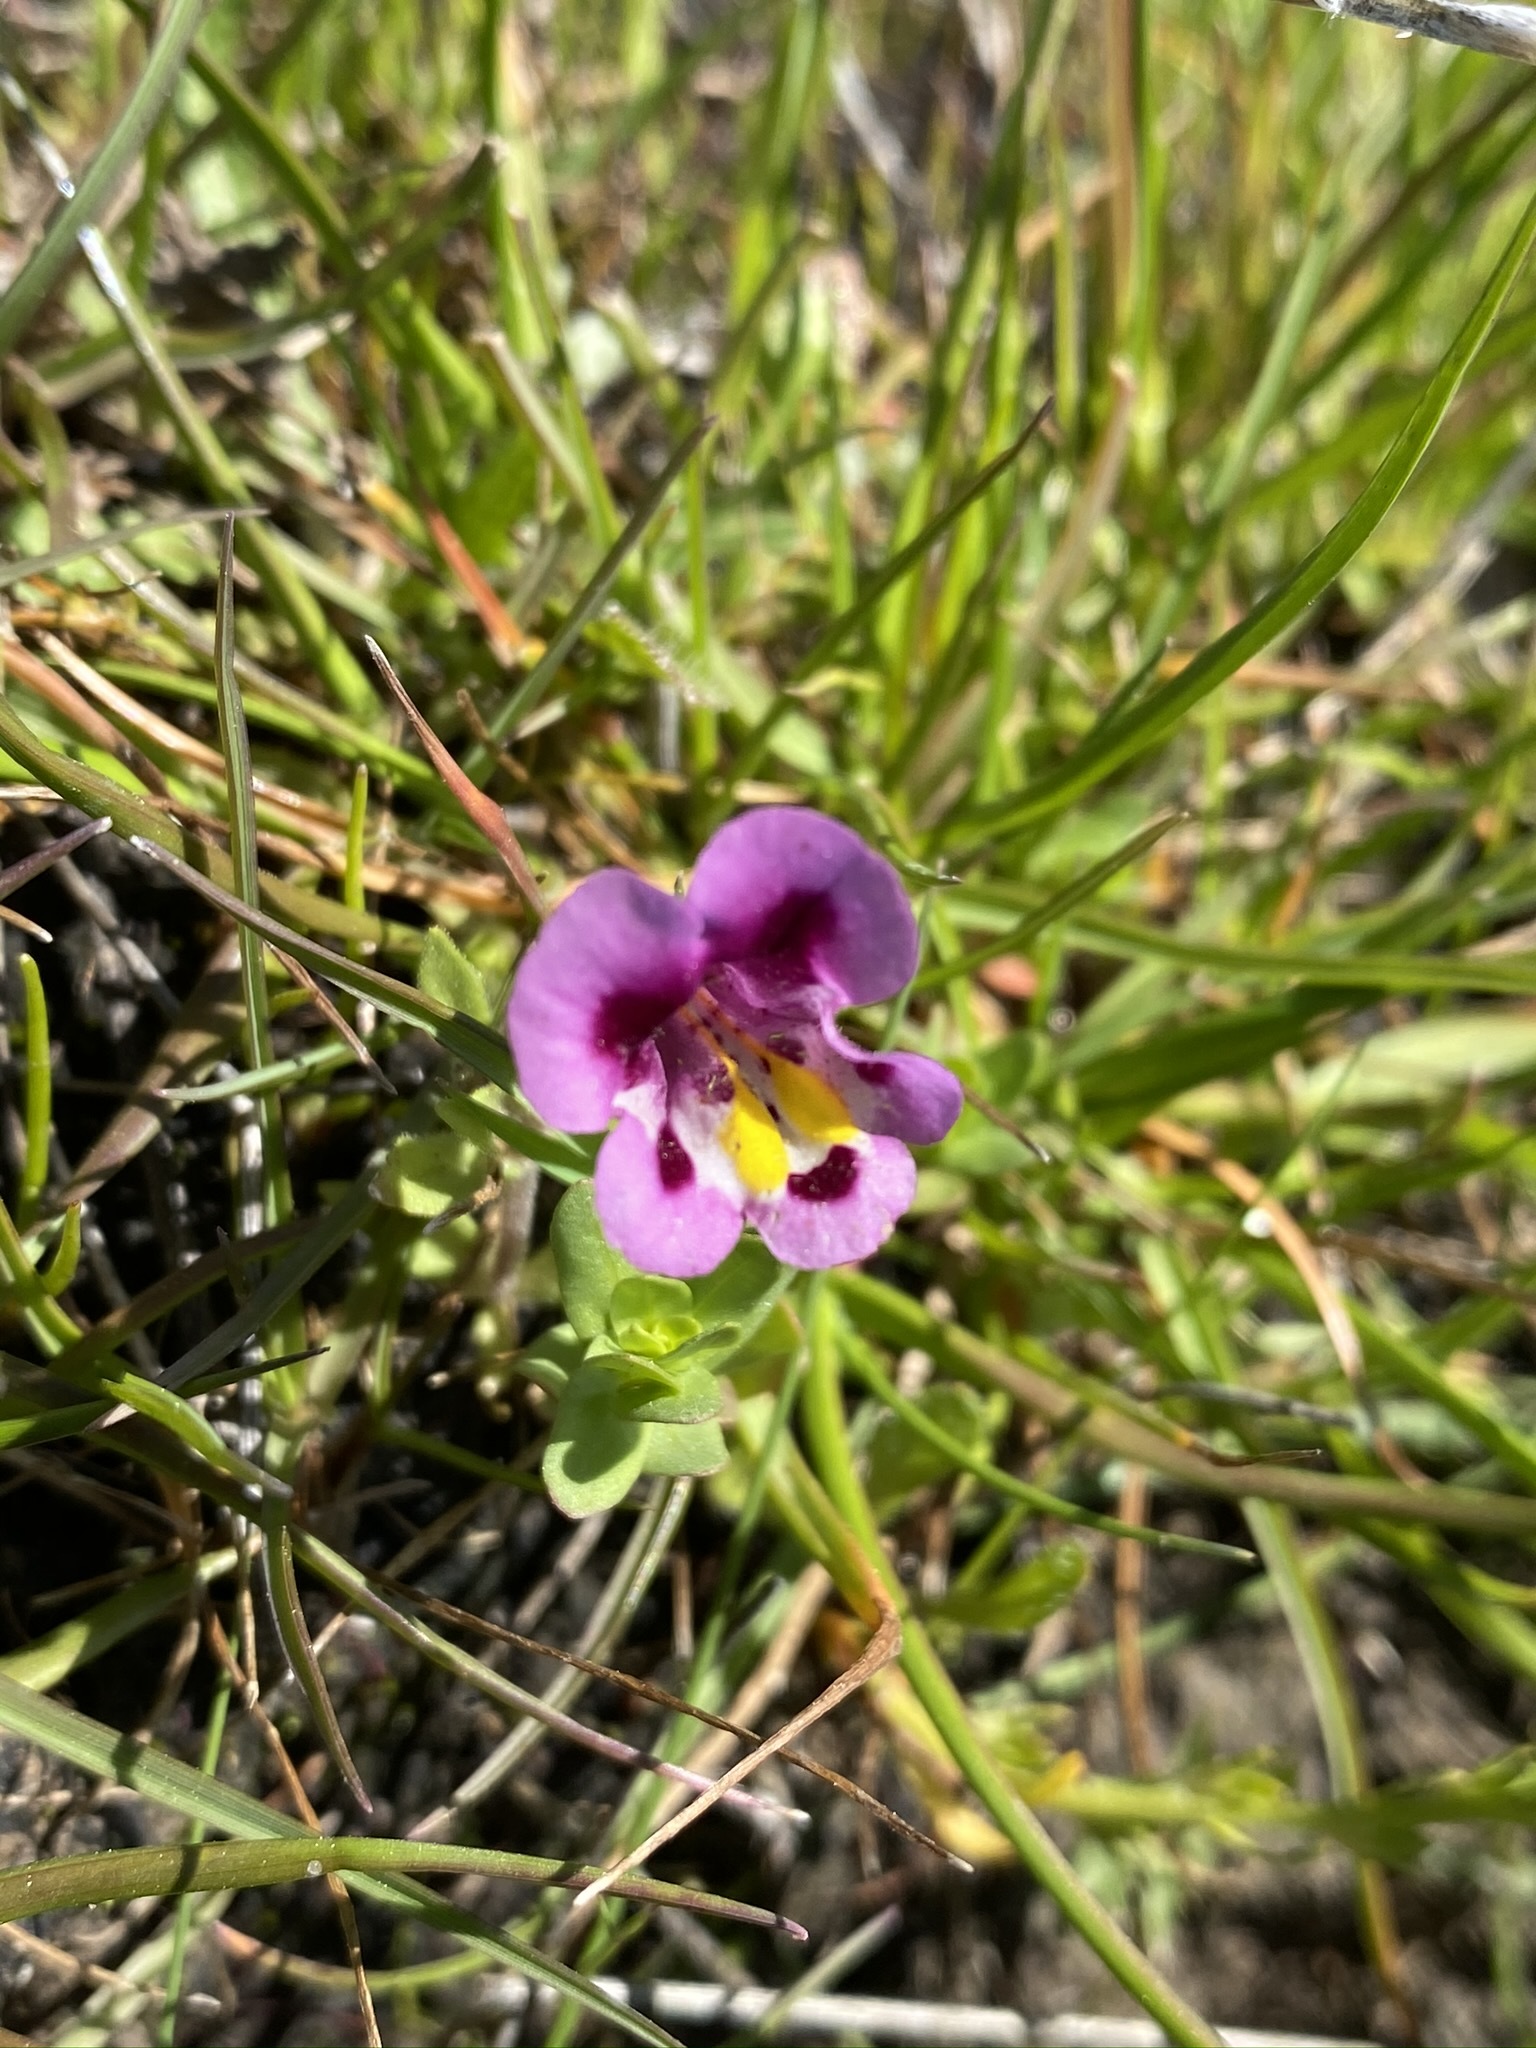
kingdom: Plantae
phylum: Tracheophyta
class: Magnoliopsida
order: Lamiales
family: Phrymaceae
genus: Diplacus
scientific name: Diplacus tricolor
